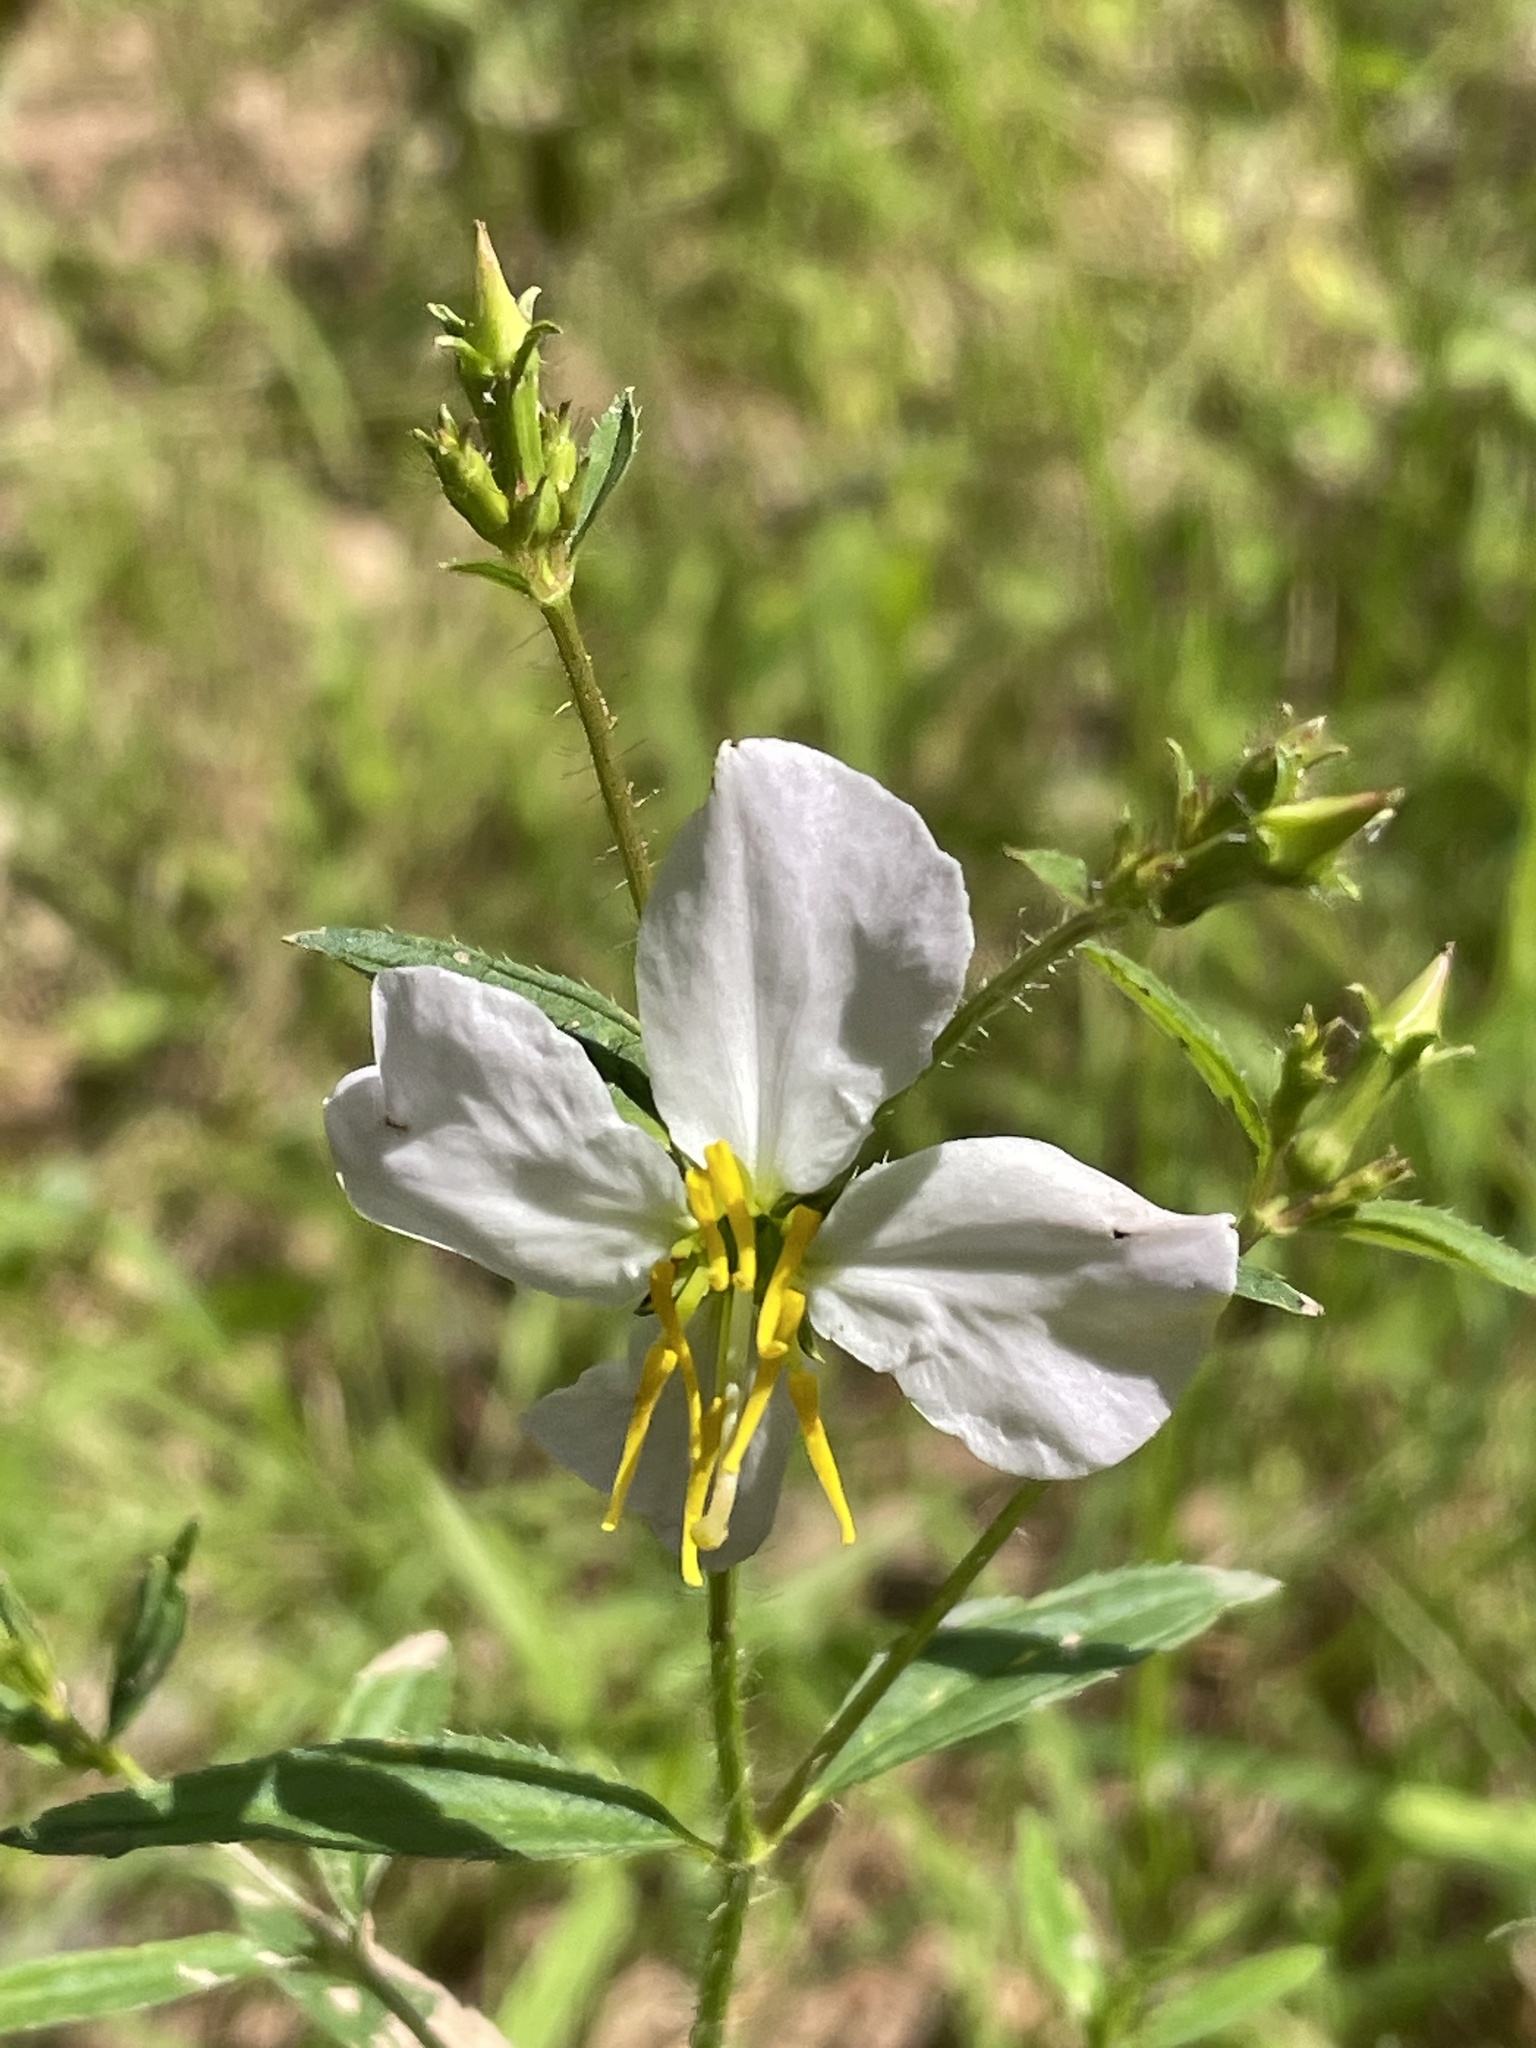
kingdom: Plantae
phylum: Tracheophyta
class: Magnoliopsida
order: Myrtales
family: Melastomataceae
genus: Rhexia
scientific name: Rhexia mariana
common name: Dull meadow-pitcher
